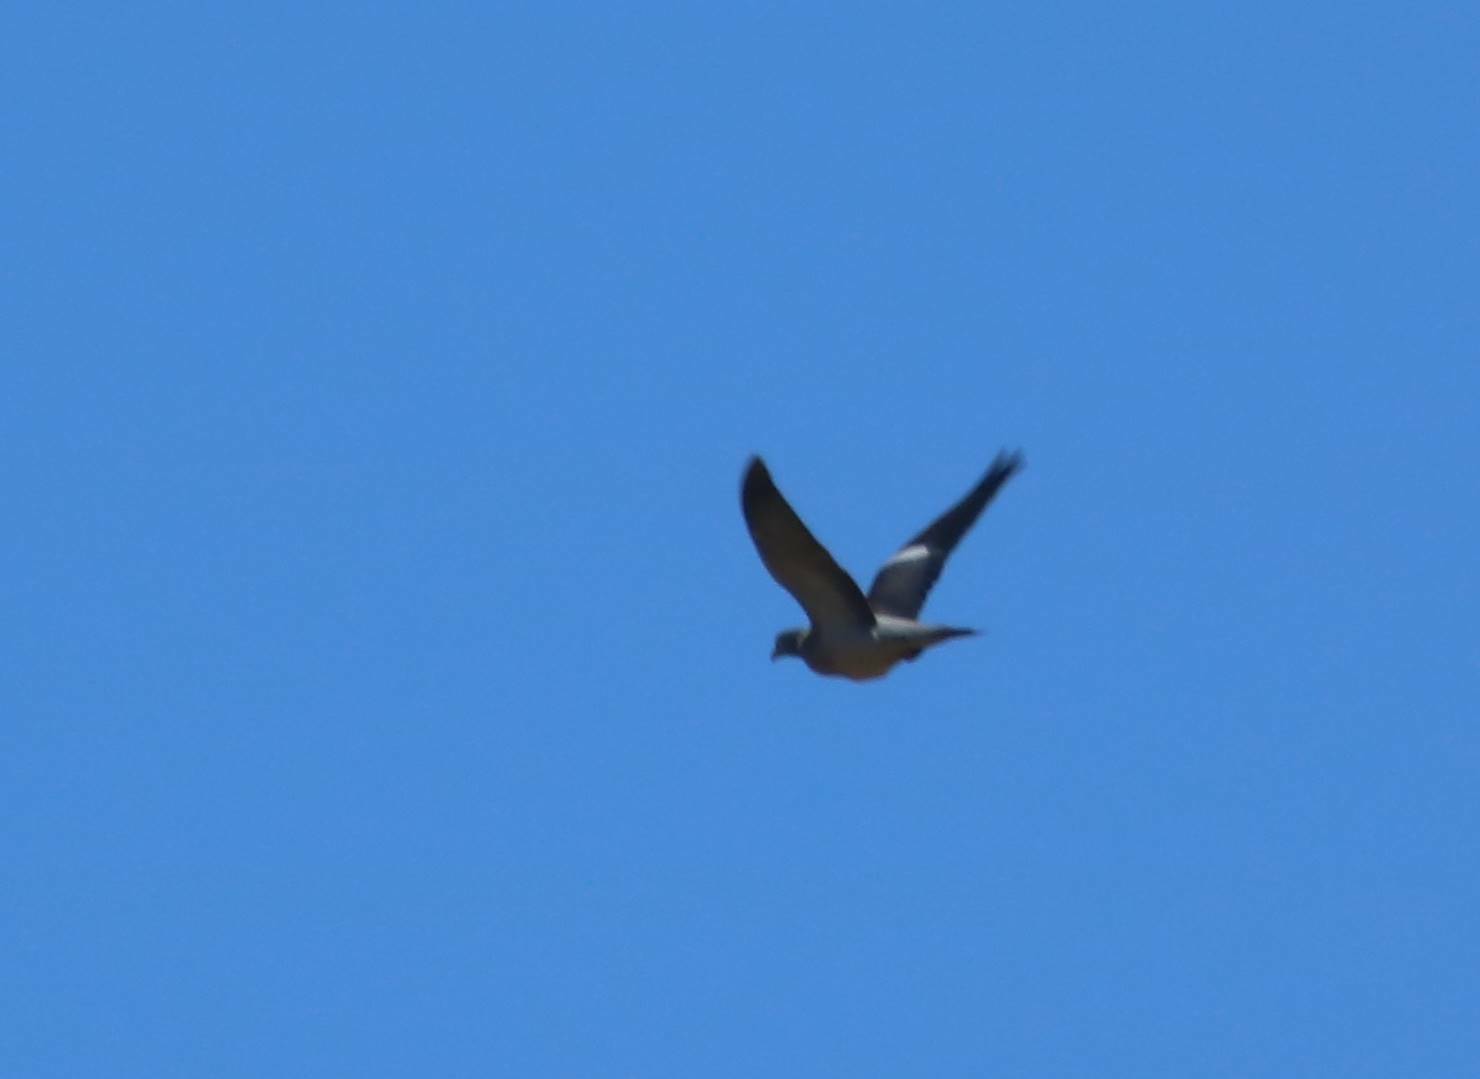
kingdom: Animalia
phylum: Chordata
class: Aves
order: Columbiformes
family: Columbidae
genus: Columba
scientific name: Columba palumbus
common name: Common wood pigeon
